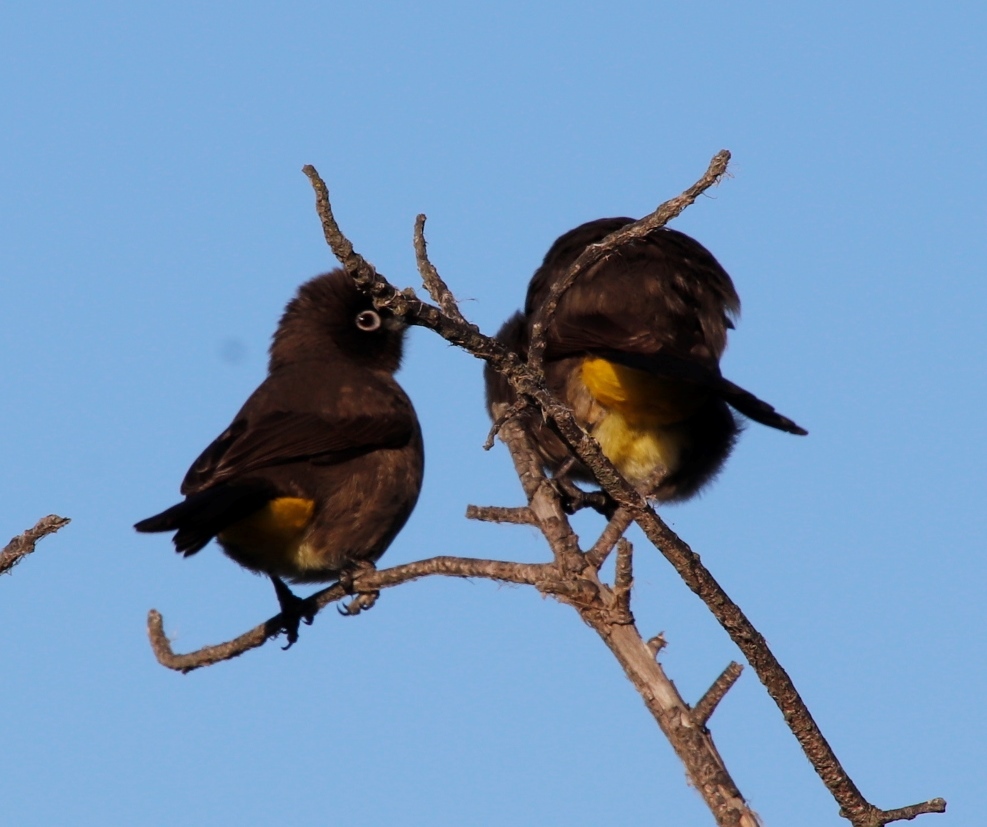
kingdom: Animalia
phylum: Chordata
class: Aves
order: Passeriformes
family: Pycnonotidae
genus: Pycnonotus
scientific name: Pycnonotus capensis
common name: Cape bulbul
